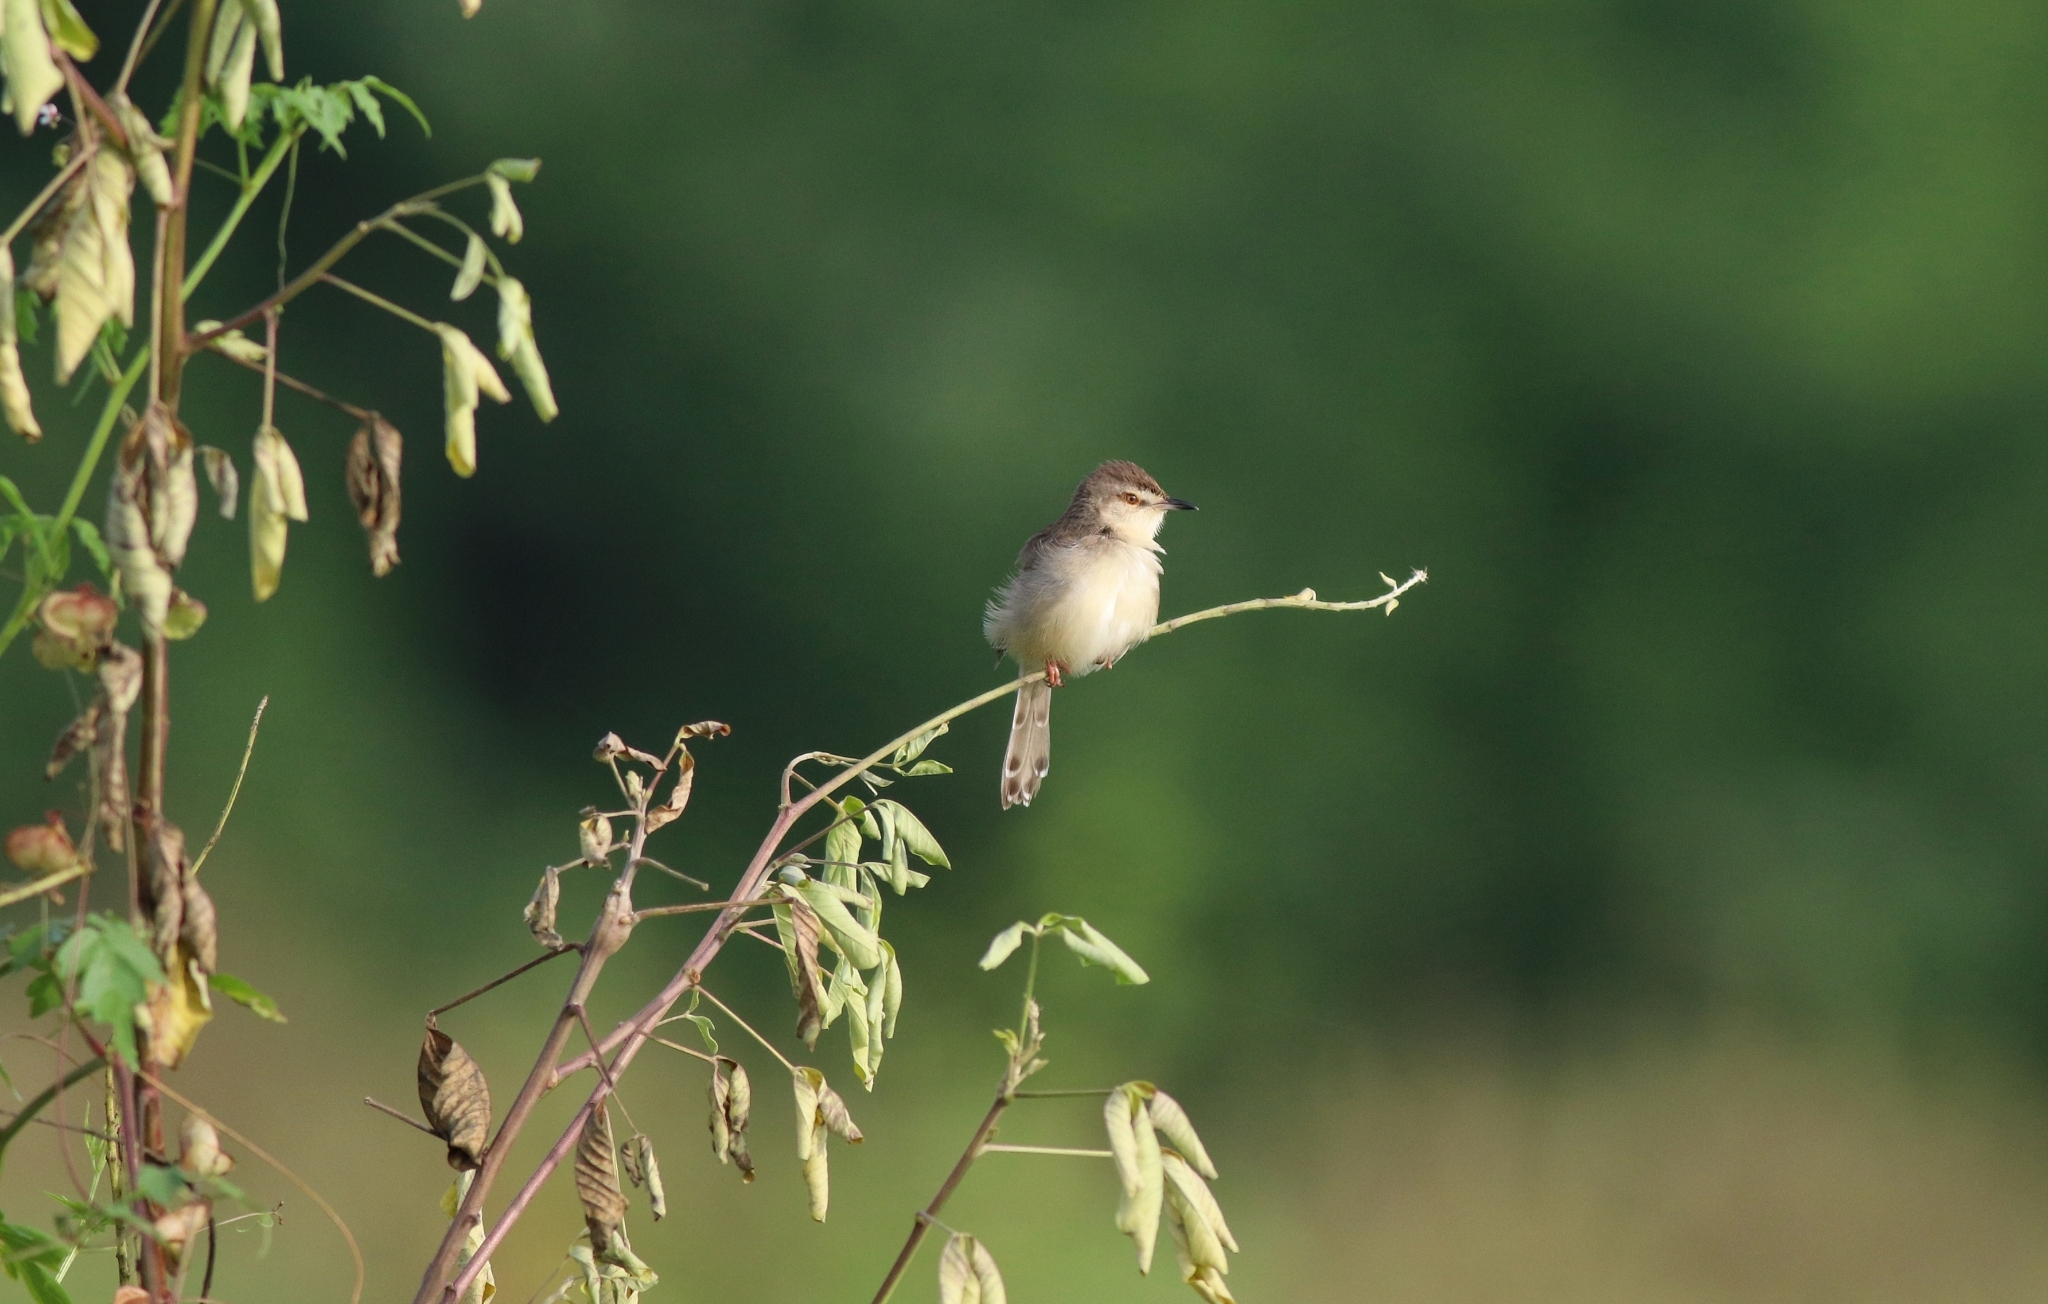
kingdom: Animalia
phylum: Chordata
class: Aves
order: Passeriformes
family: Cisticolidae
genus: Prinia
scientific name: Prinia inornata
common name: Plain prinia
